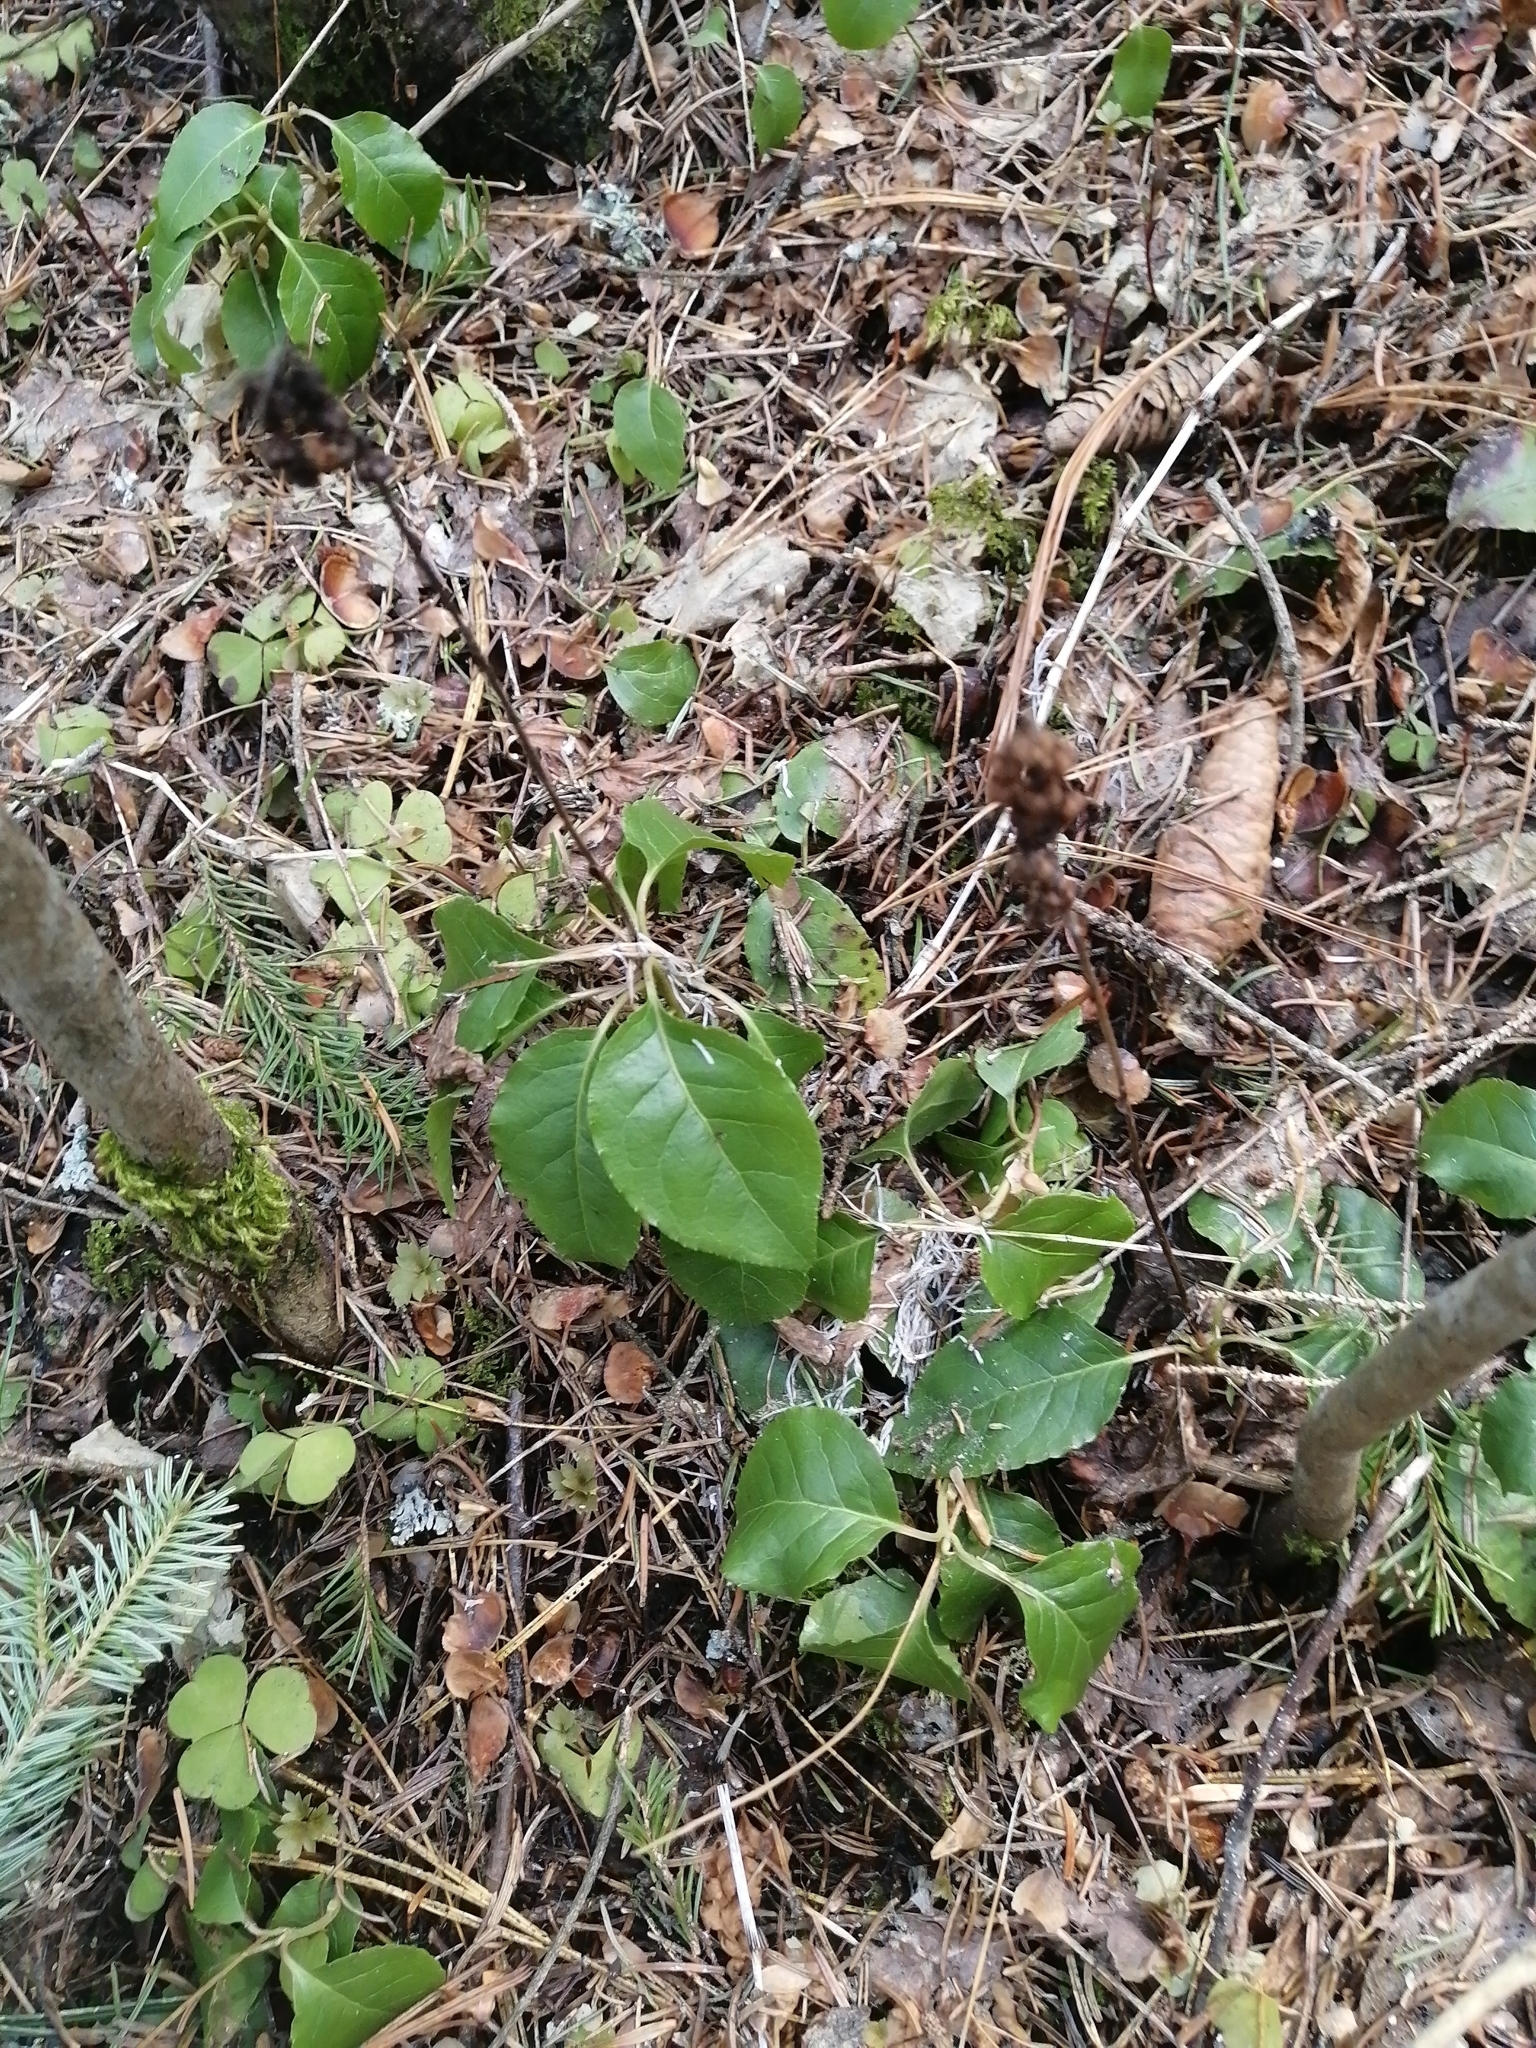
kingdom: Plantae
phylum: Tracheophyta
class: Magnoliopsida
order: Ericales
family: Ericaceae
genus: Orthilia
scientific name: Orthilia secunda
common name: One-sided orthilia
